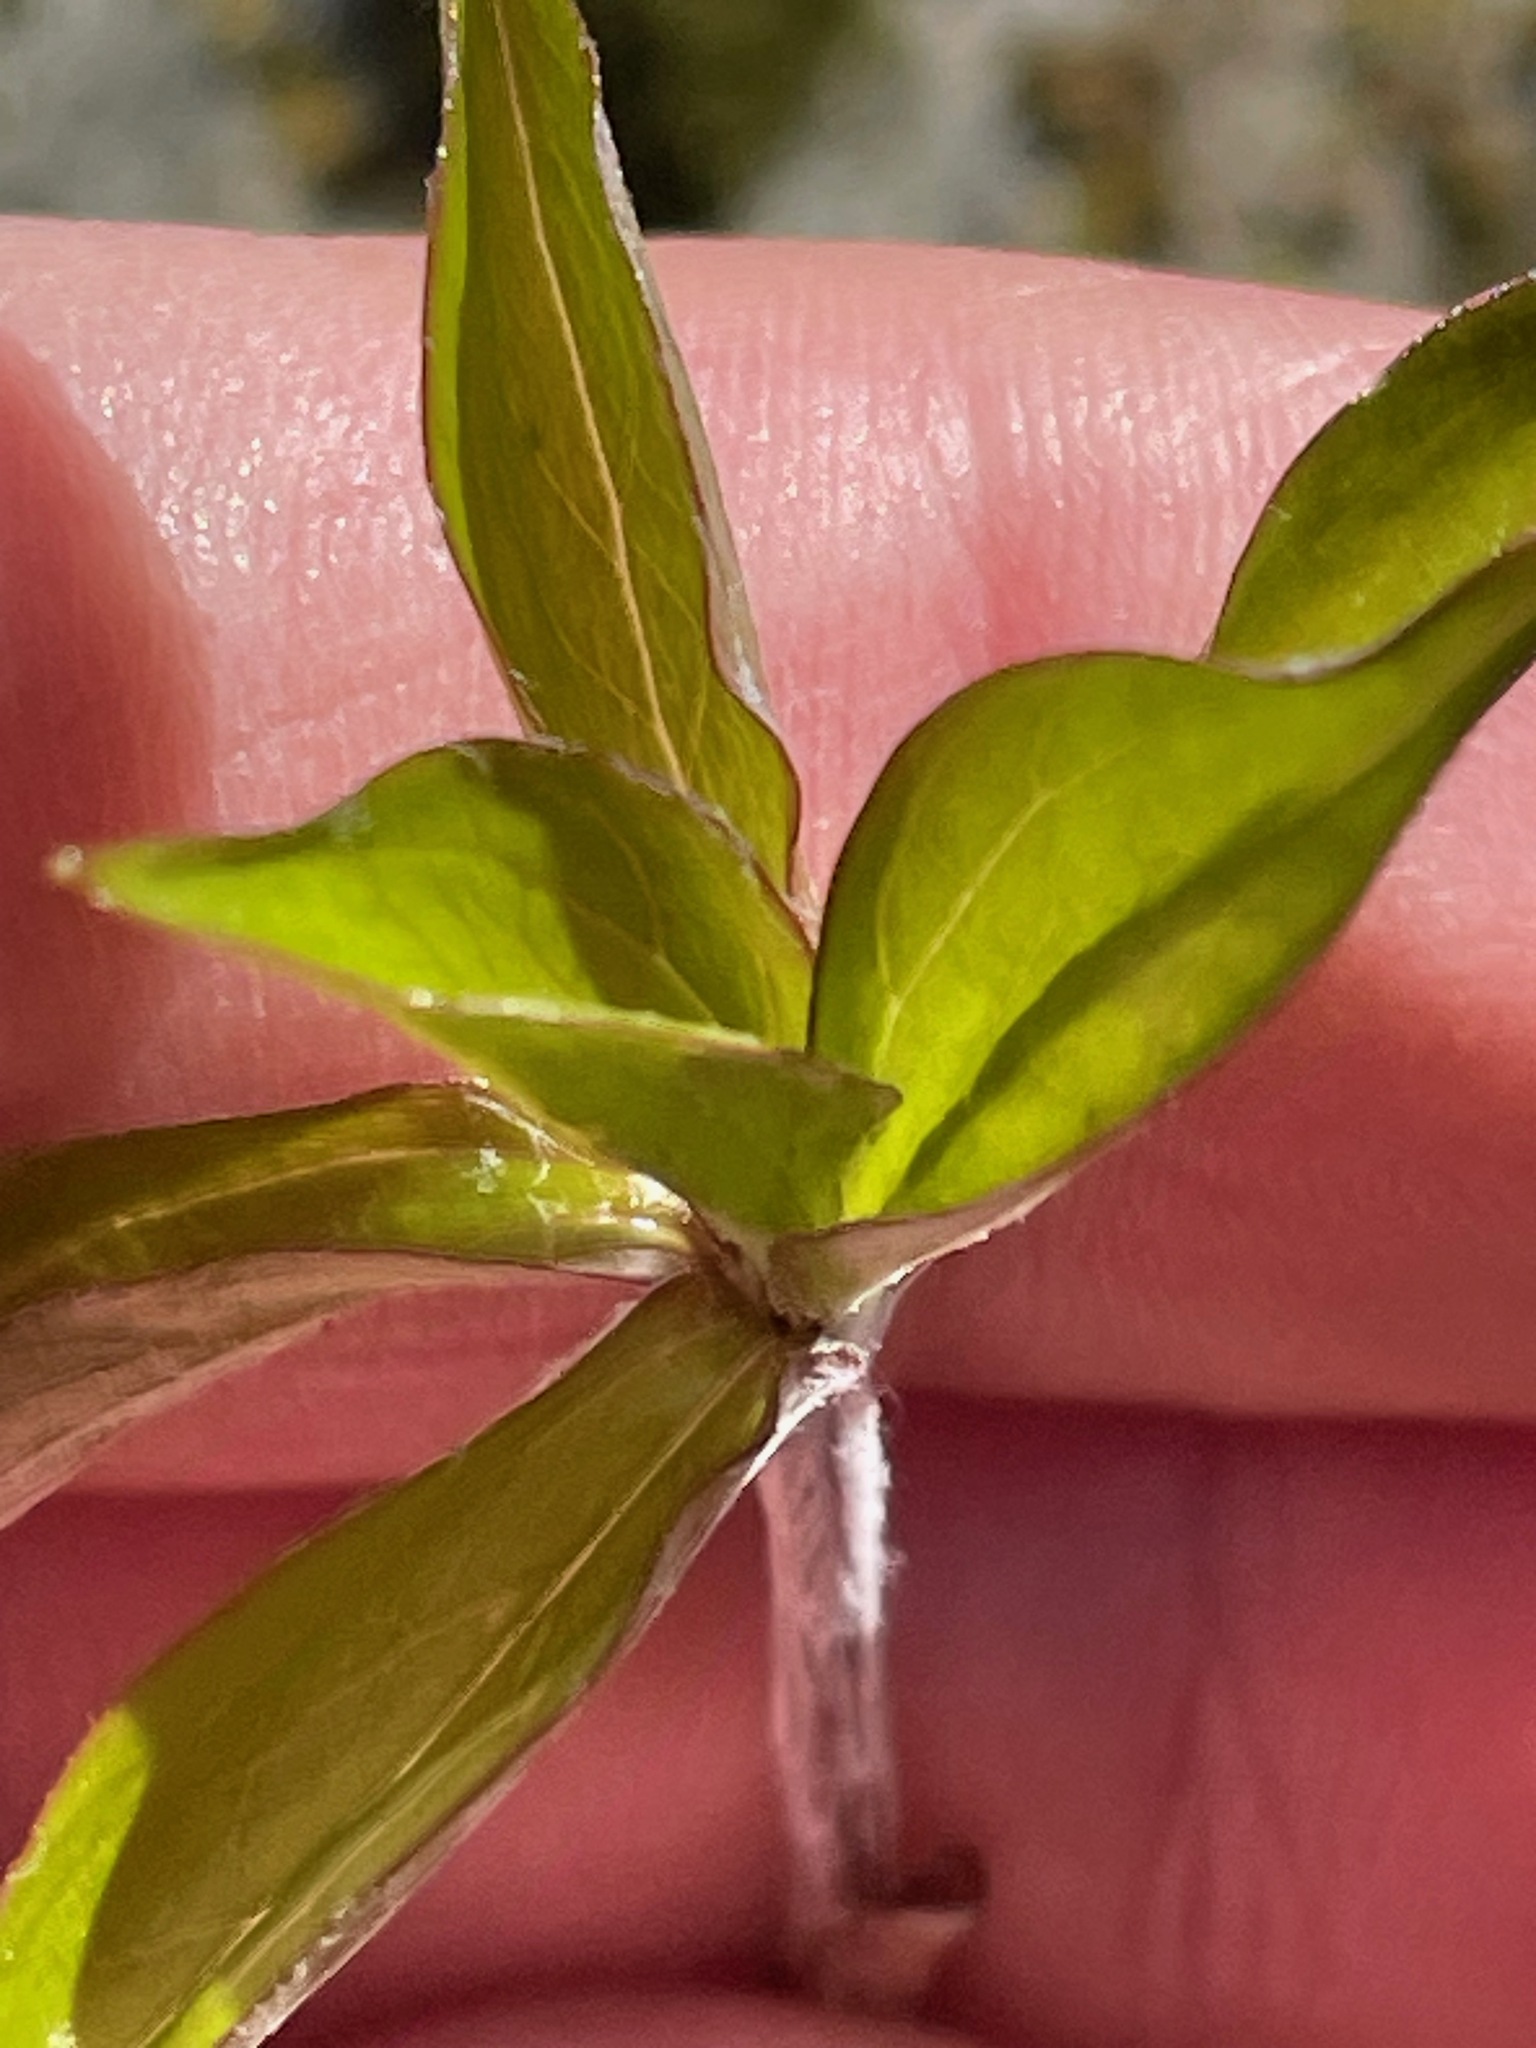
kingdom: Plantae
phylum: Tracheophyta
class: Liliopsida
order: Liliales
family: Liliaceae
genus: Medeola
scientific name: Medeola virginiana
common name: Indian cucumber-root
